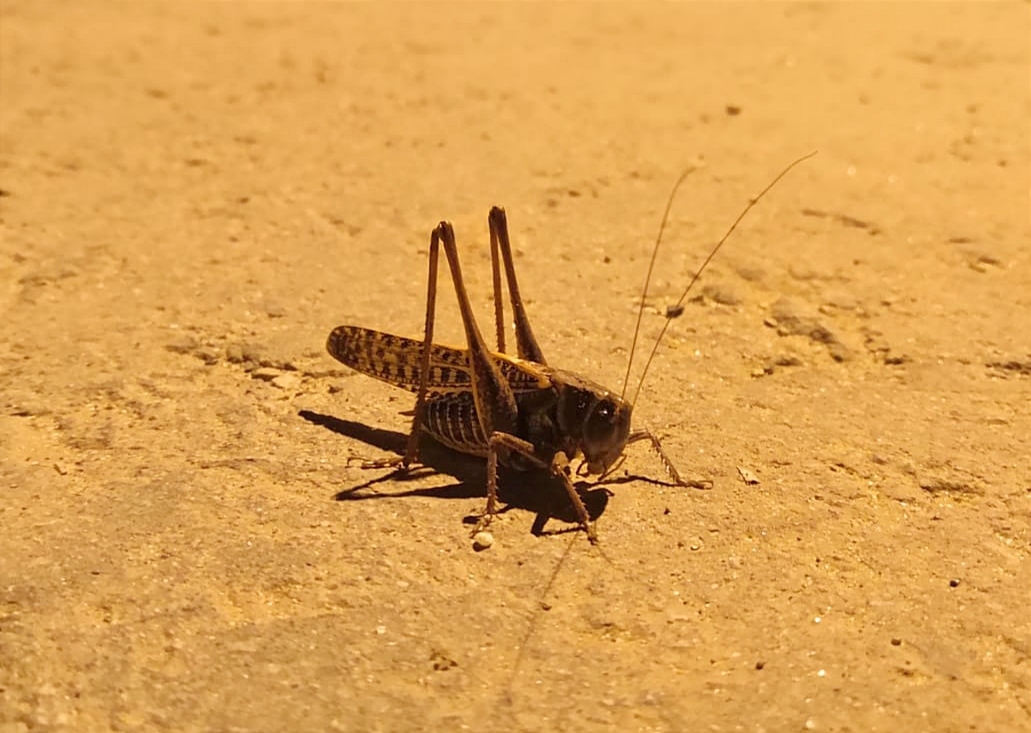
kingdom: Animalia
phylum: Arthropoda
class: Insecta
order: Orthoptera
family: Tettigoniidae
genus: Decticus
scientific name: Decticus verrucivorus
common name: Wart-biter
